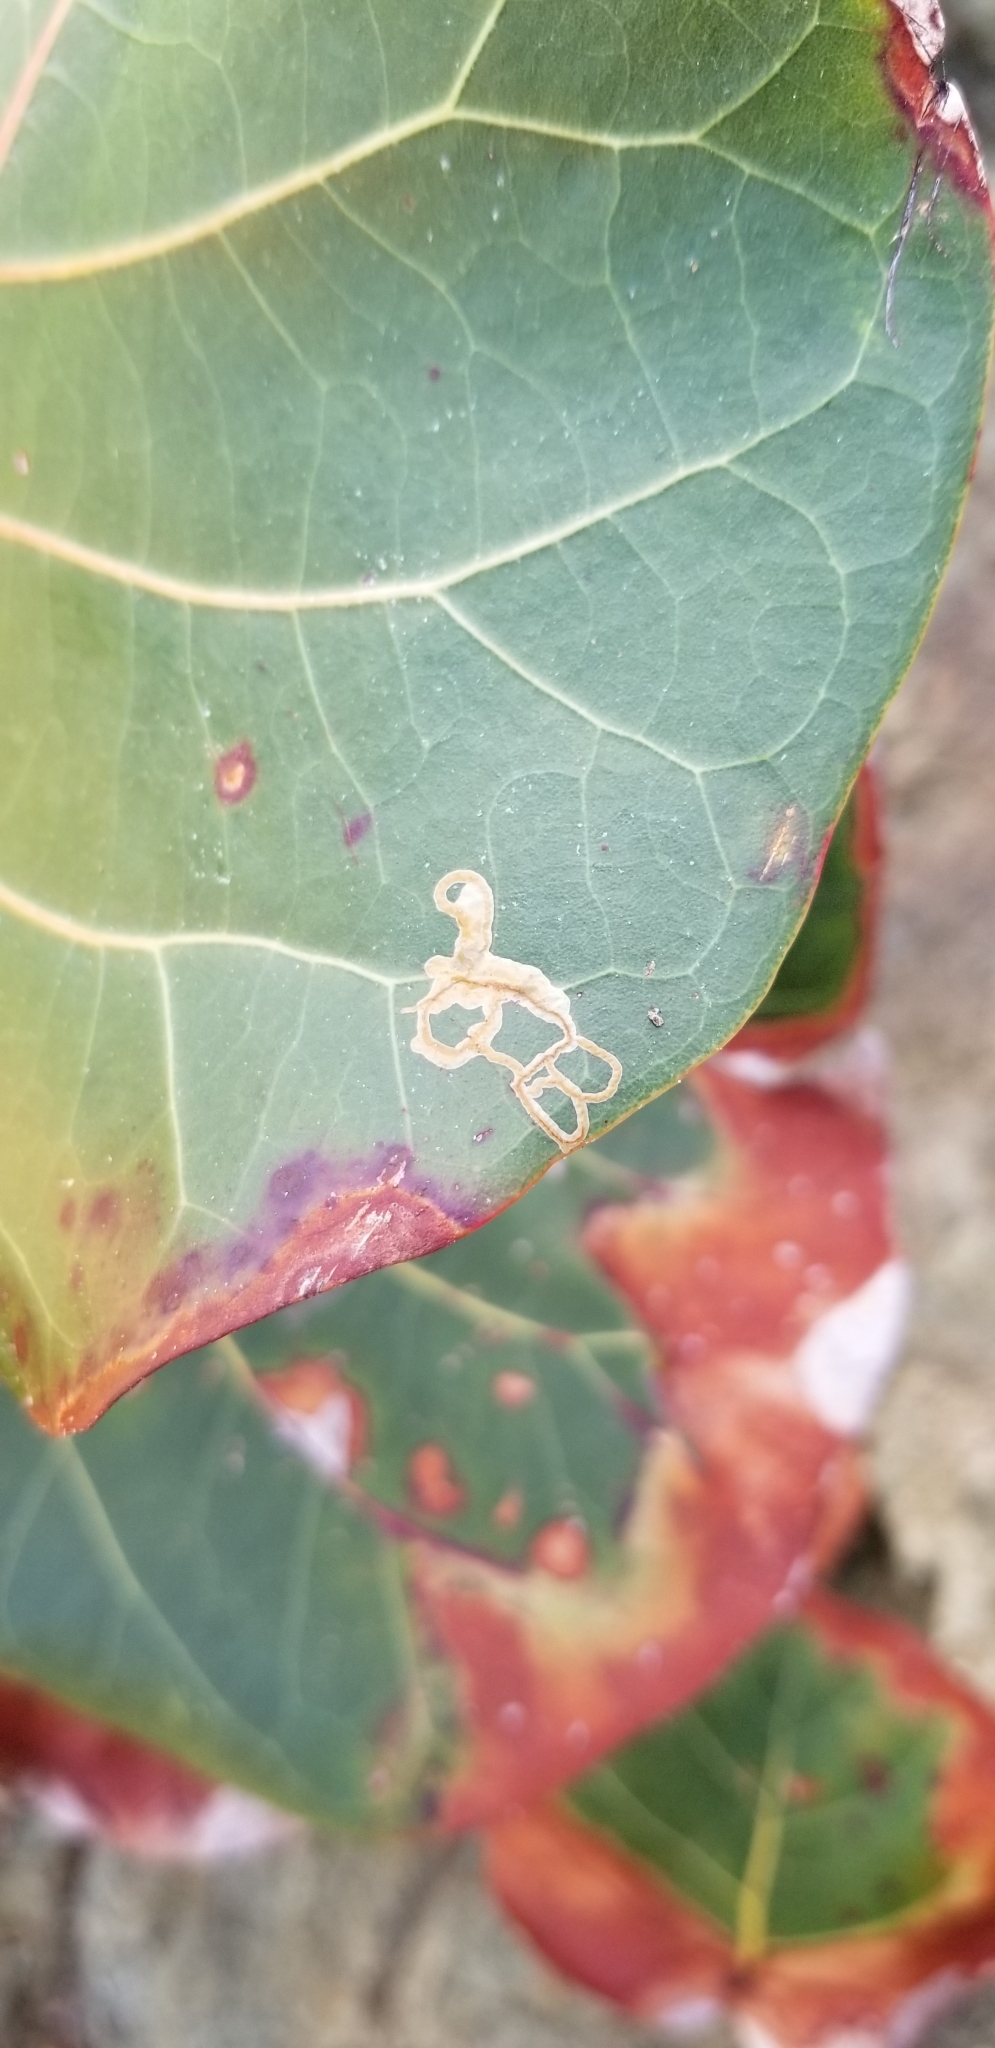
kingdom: Plantae
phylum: Tracheophyta
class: Magnoliopsida
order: Caryophyllales
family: Polygonaceae
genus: Coccoloba
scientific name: Coccoloba uvifera
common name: Seagrape
